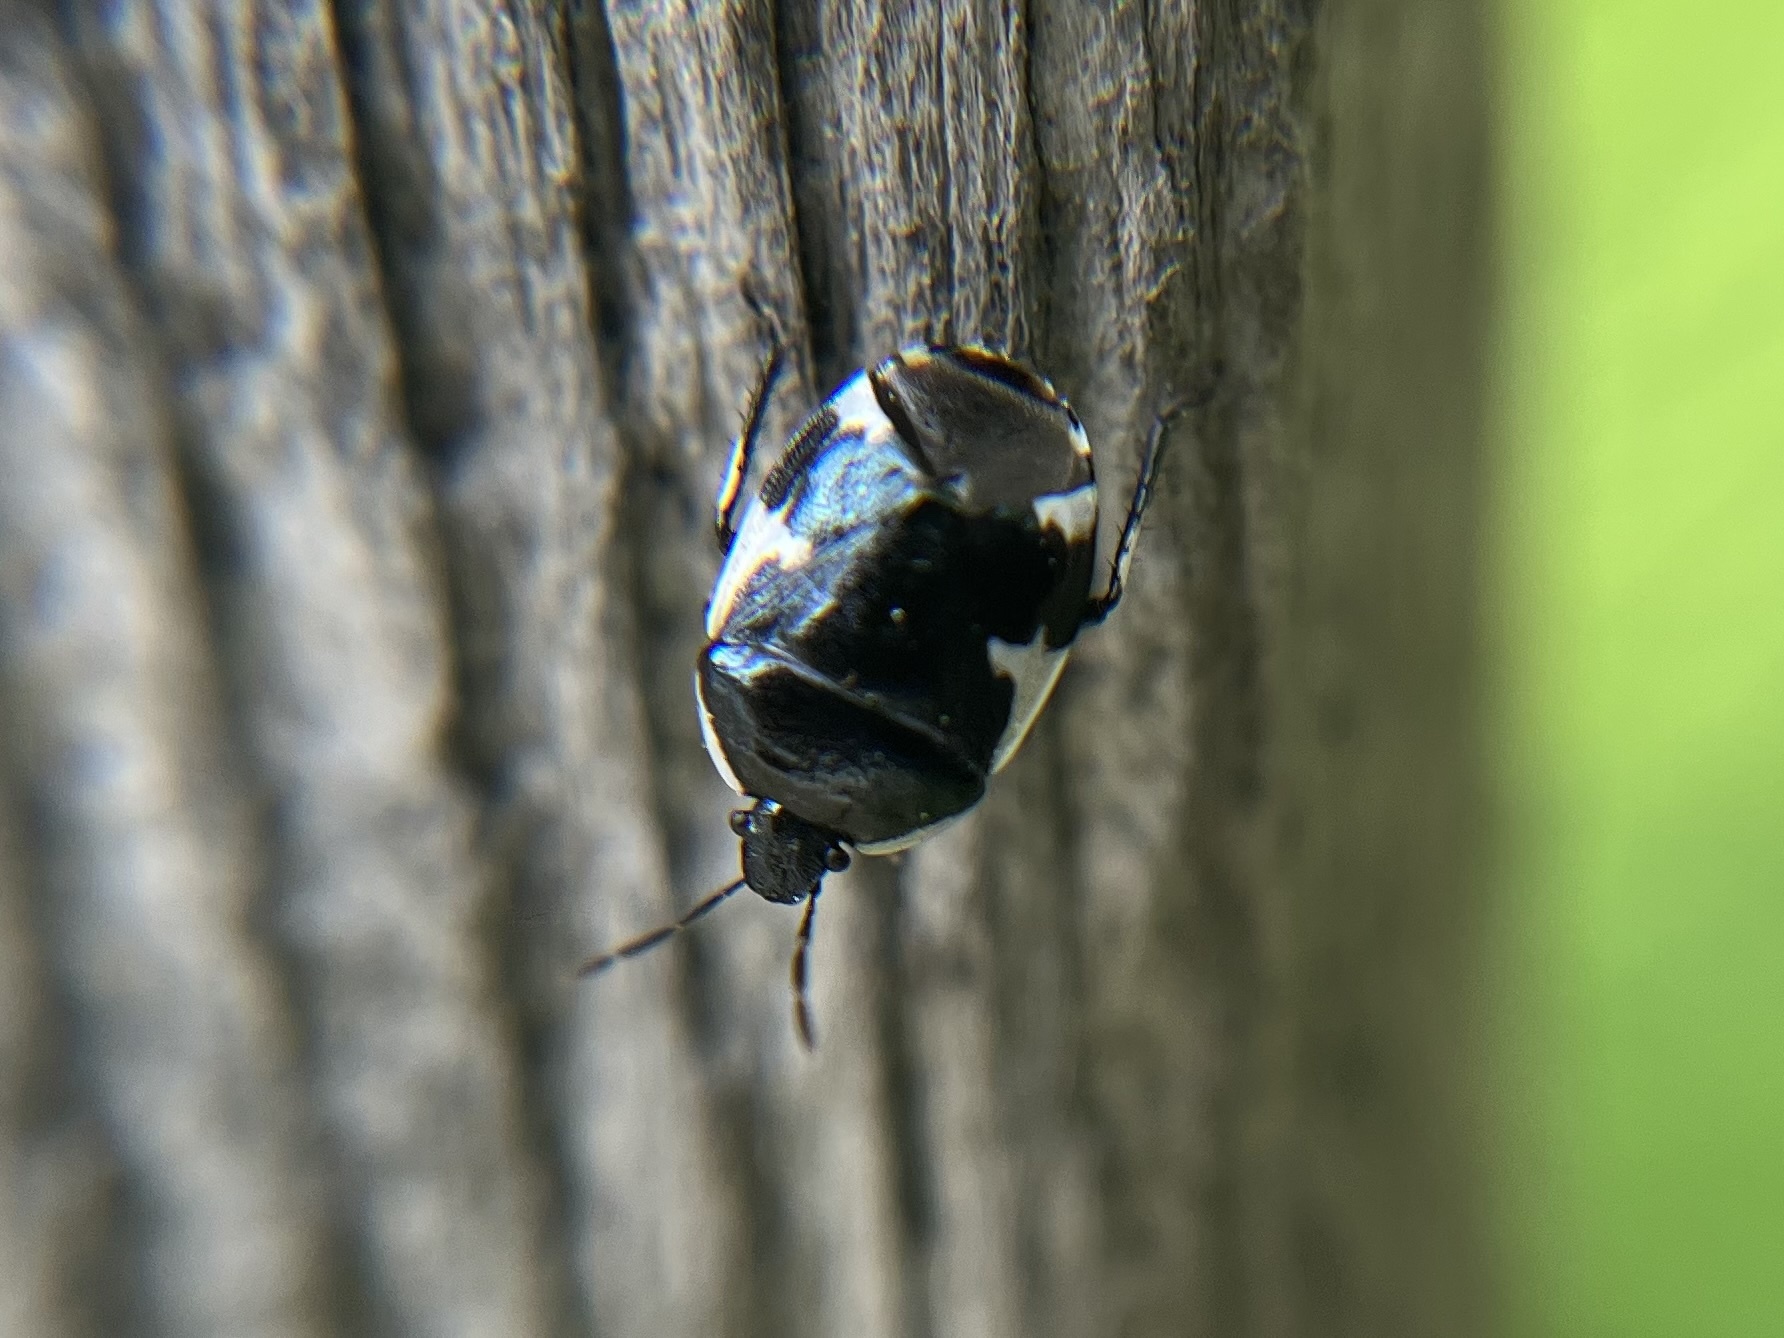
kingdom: Animalia
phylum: Arthropoda
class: Insecta
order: Hemiptera
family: Cydnidae
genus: Tritomegas
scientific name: Tritomegas sexmaculatus
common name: Rambur's pied shieldbug
